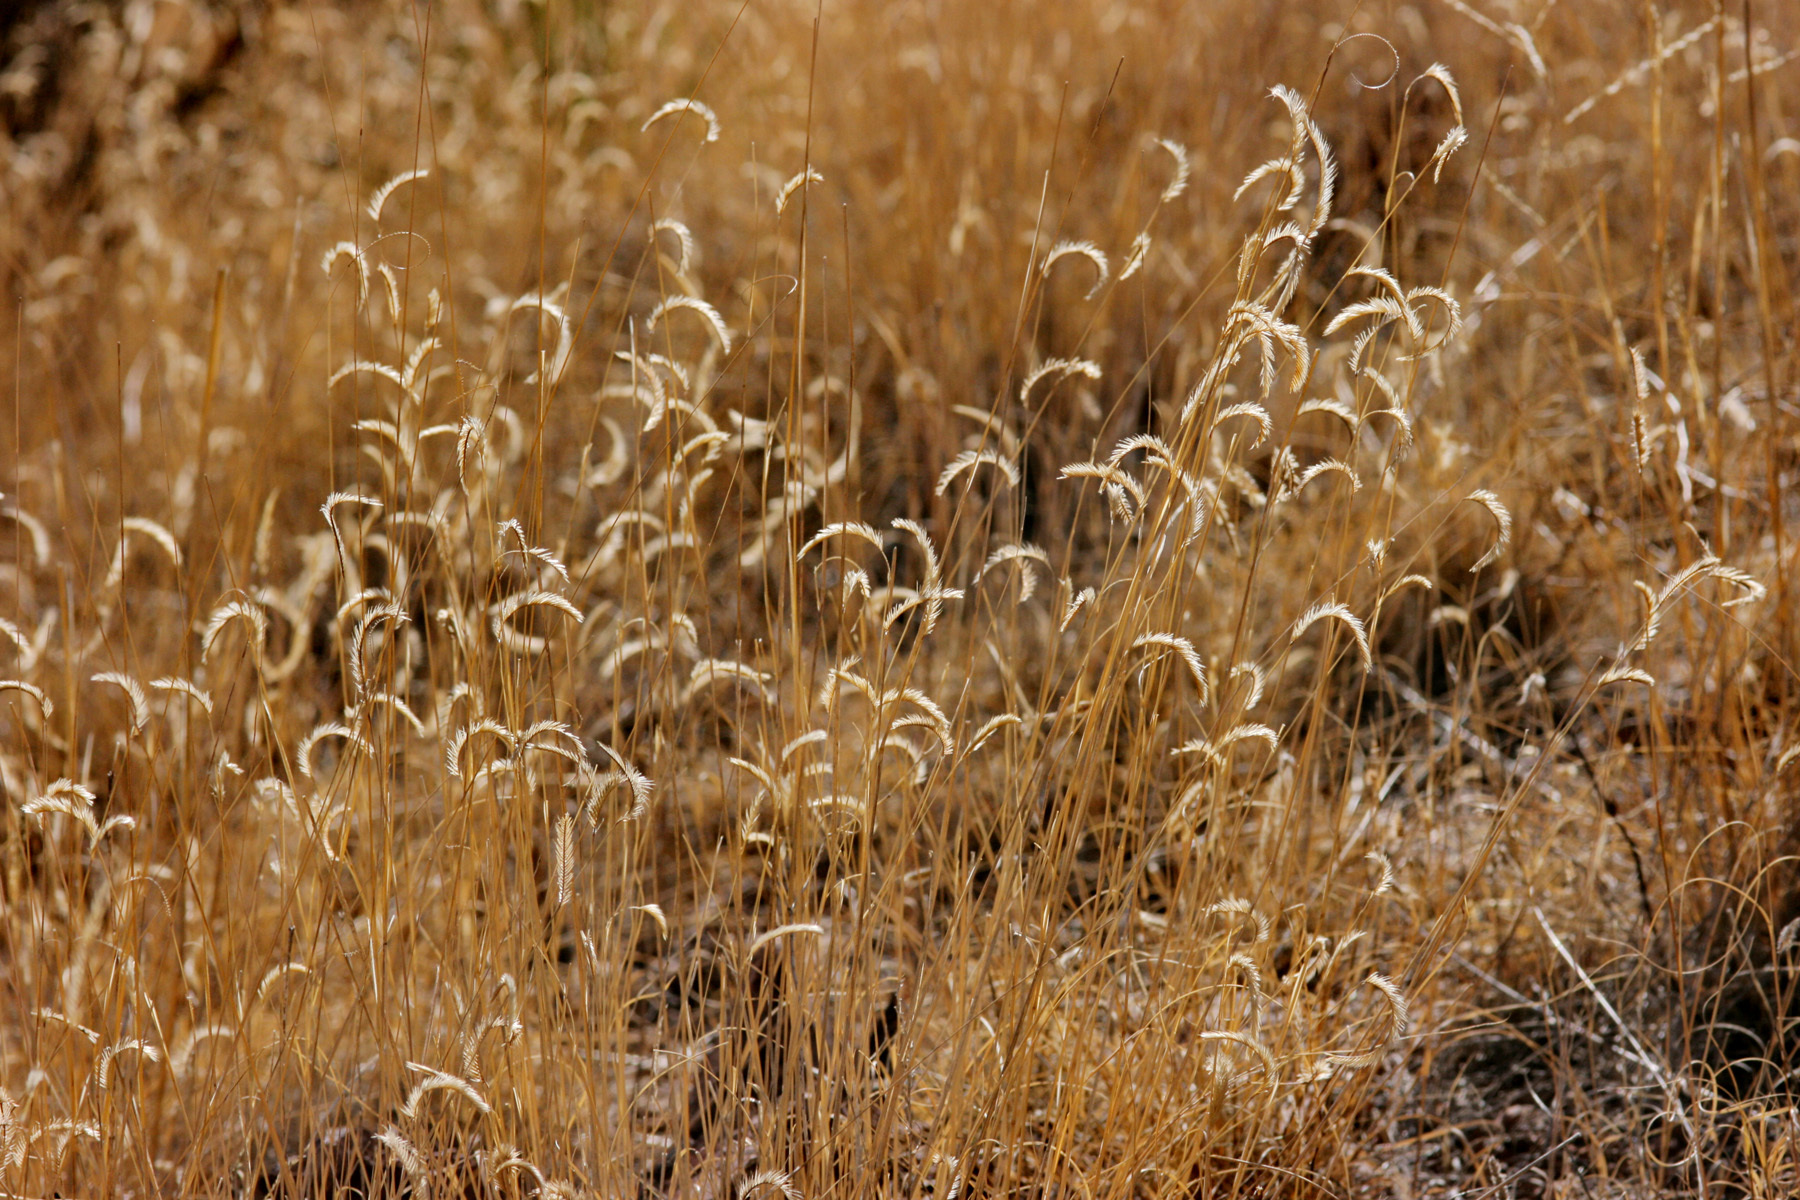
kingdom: Plantae
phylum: Tracheophyta
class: Liliopsida
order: Poales
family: Poaceae
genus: Bouteloua
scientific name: Bouteloua gracilis
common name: Blue grama
